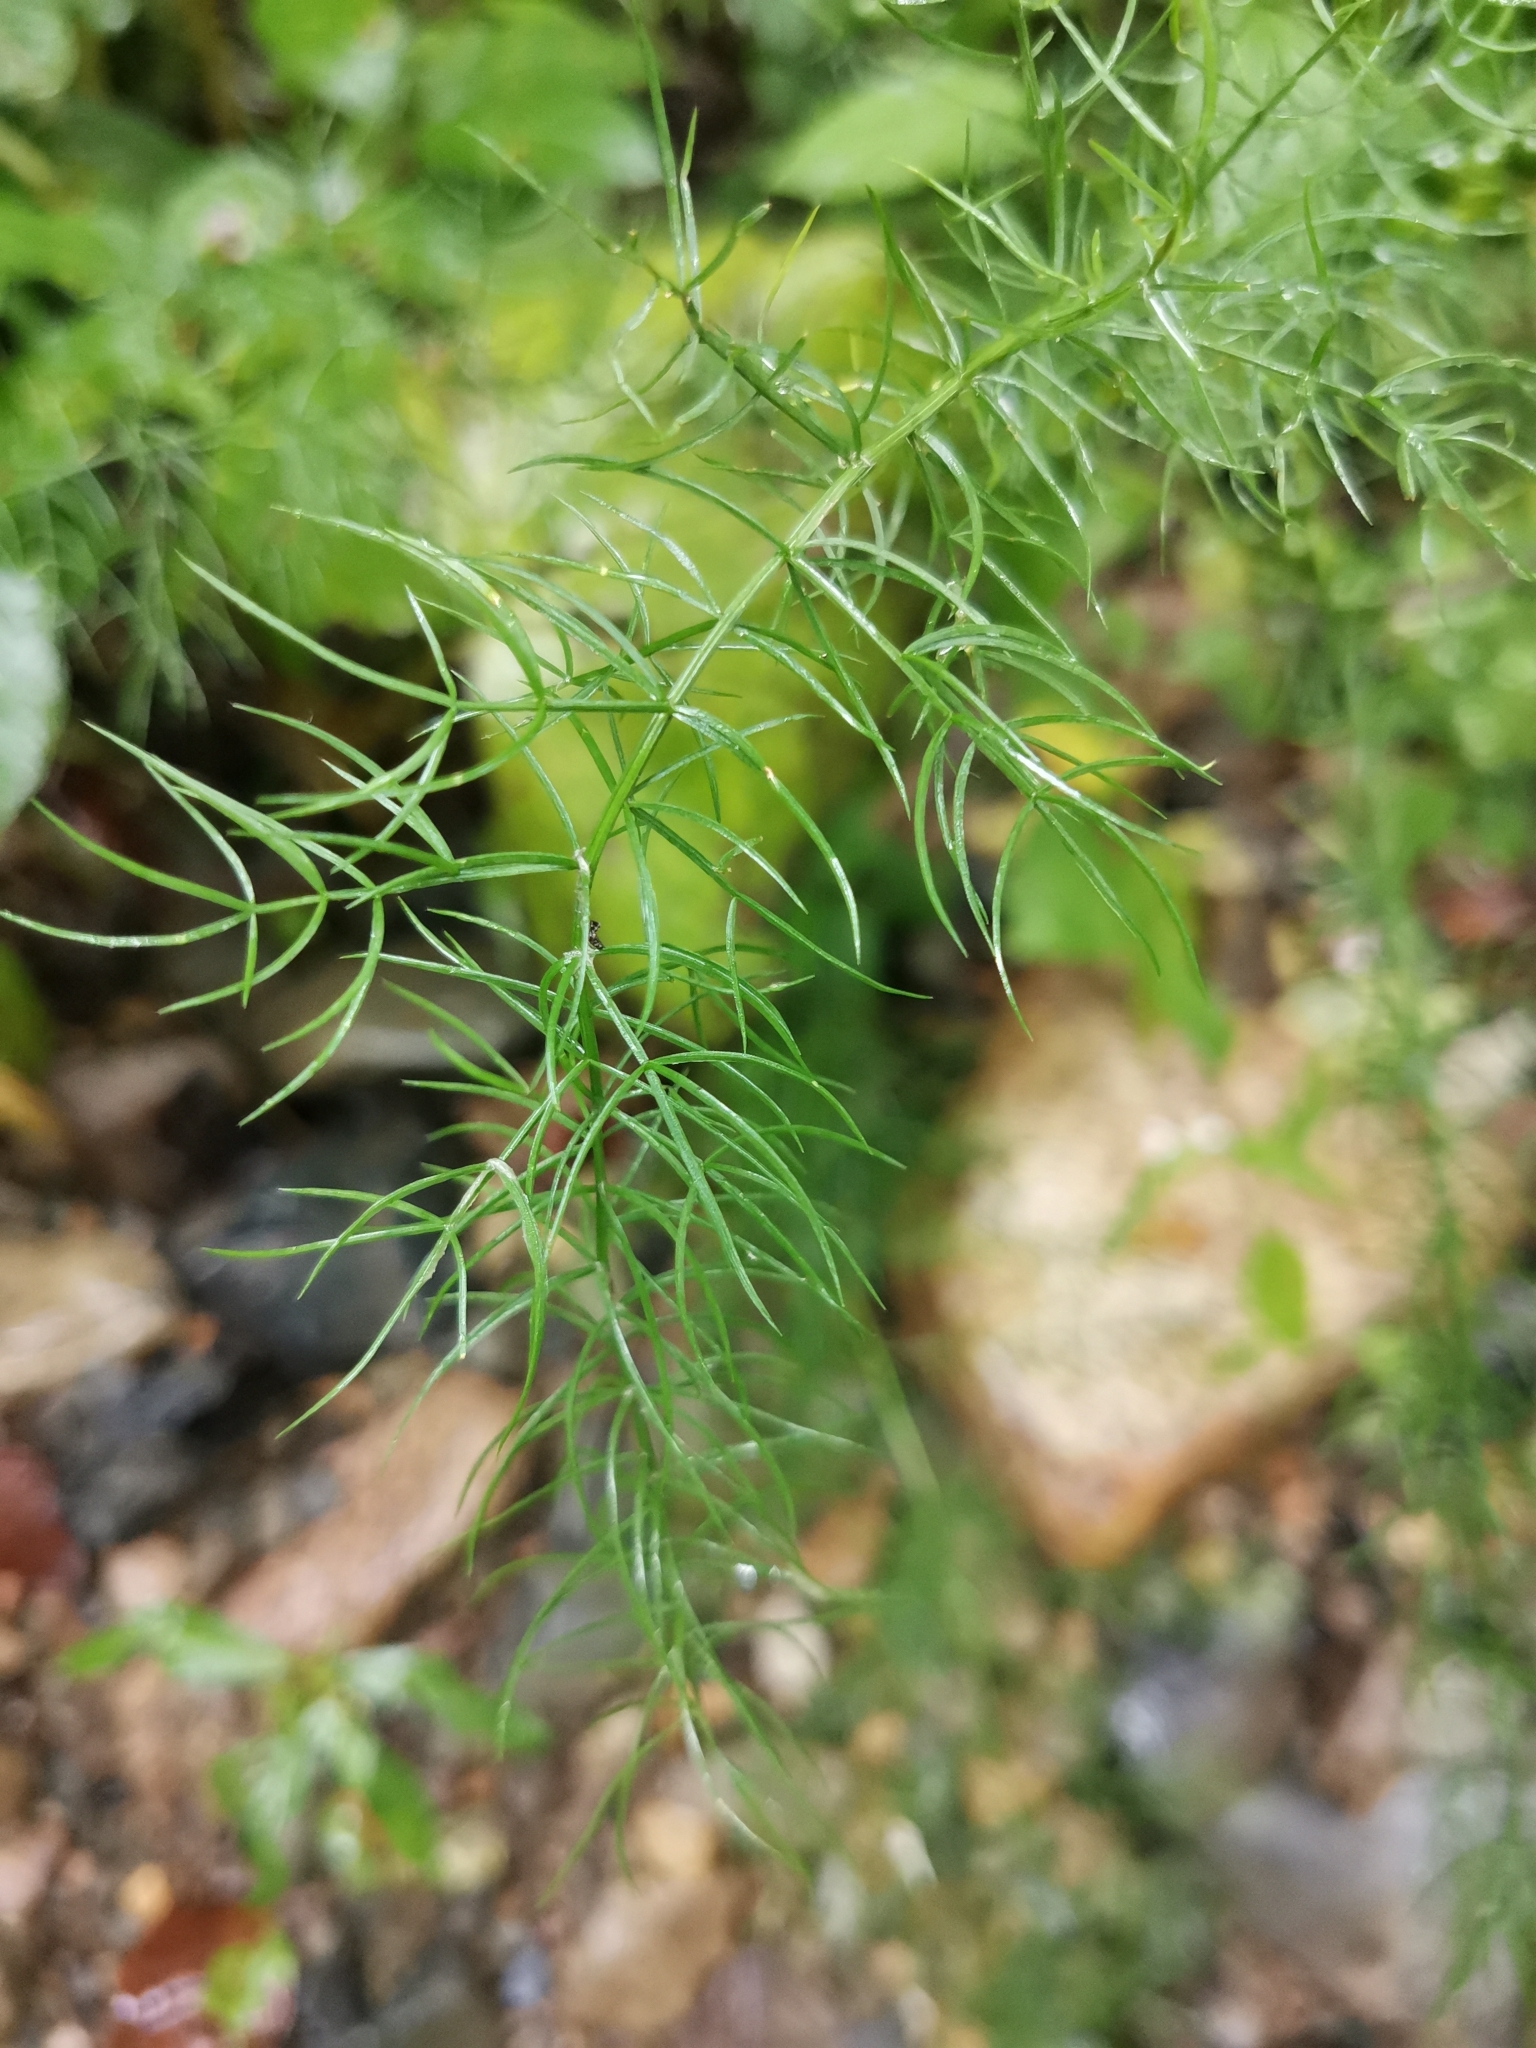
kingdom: Plantae
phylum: Tracheophyta
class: Liliopsida
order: Asparagales
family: Asparagaceae
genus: Asparagus
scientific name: Asparagus schoberioides
